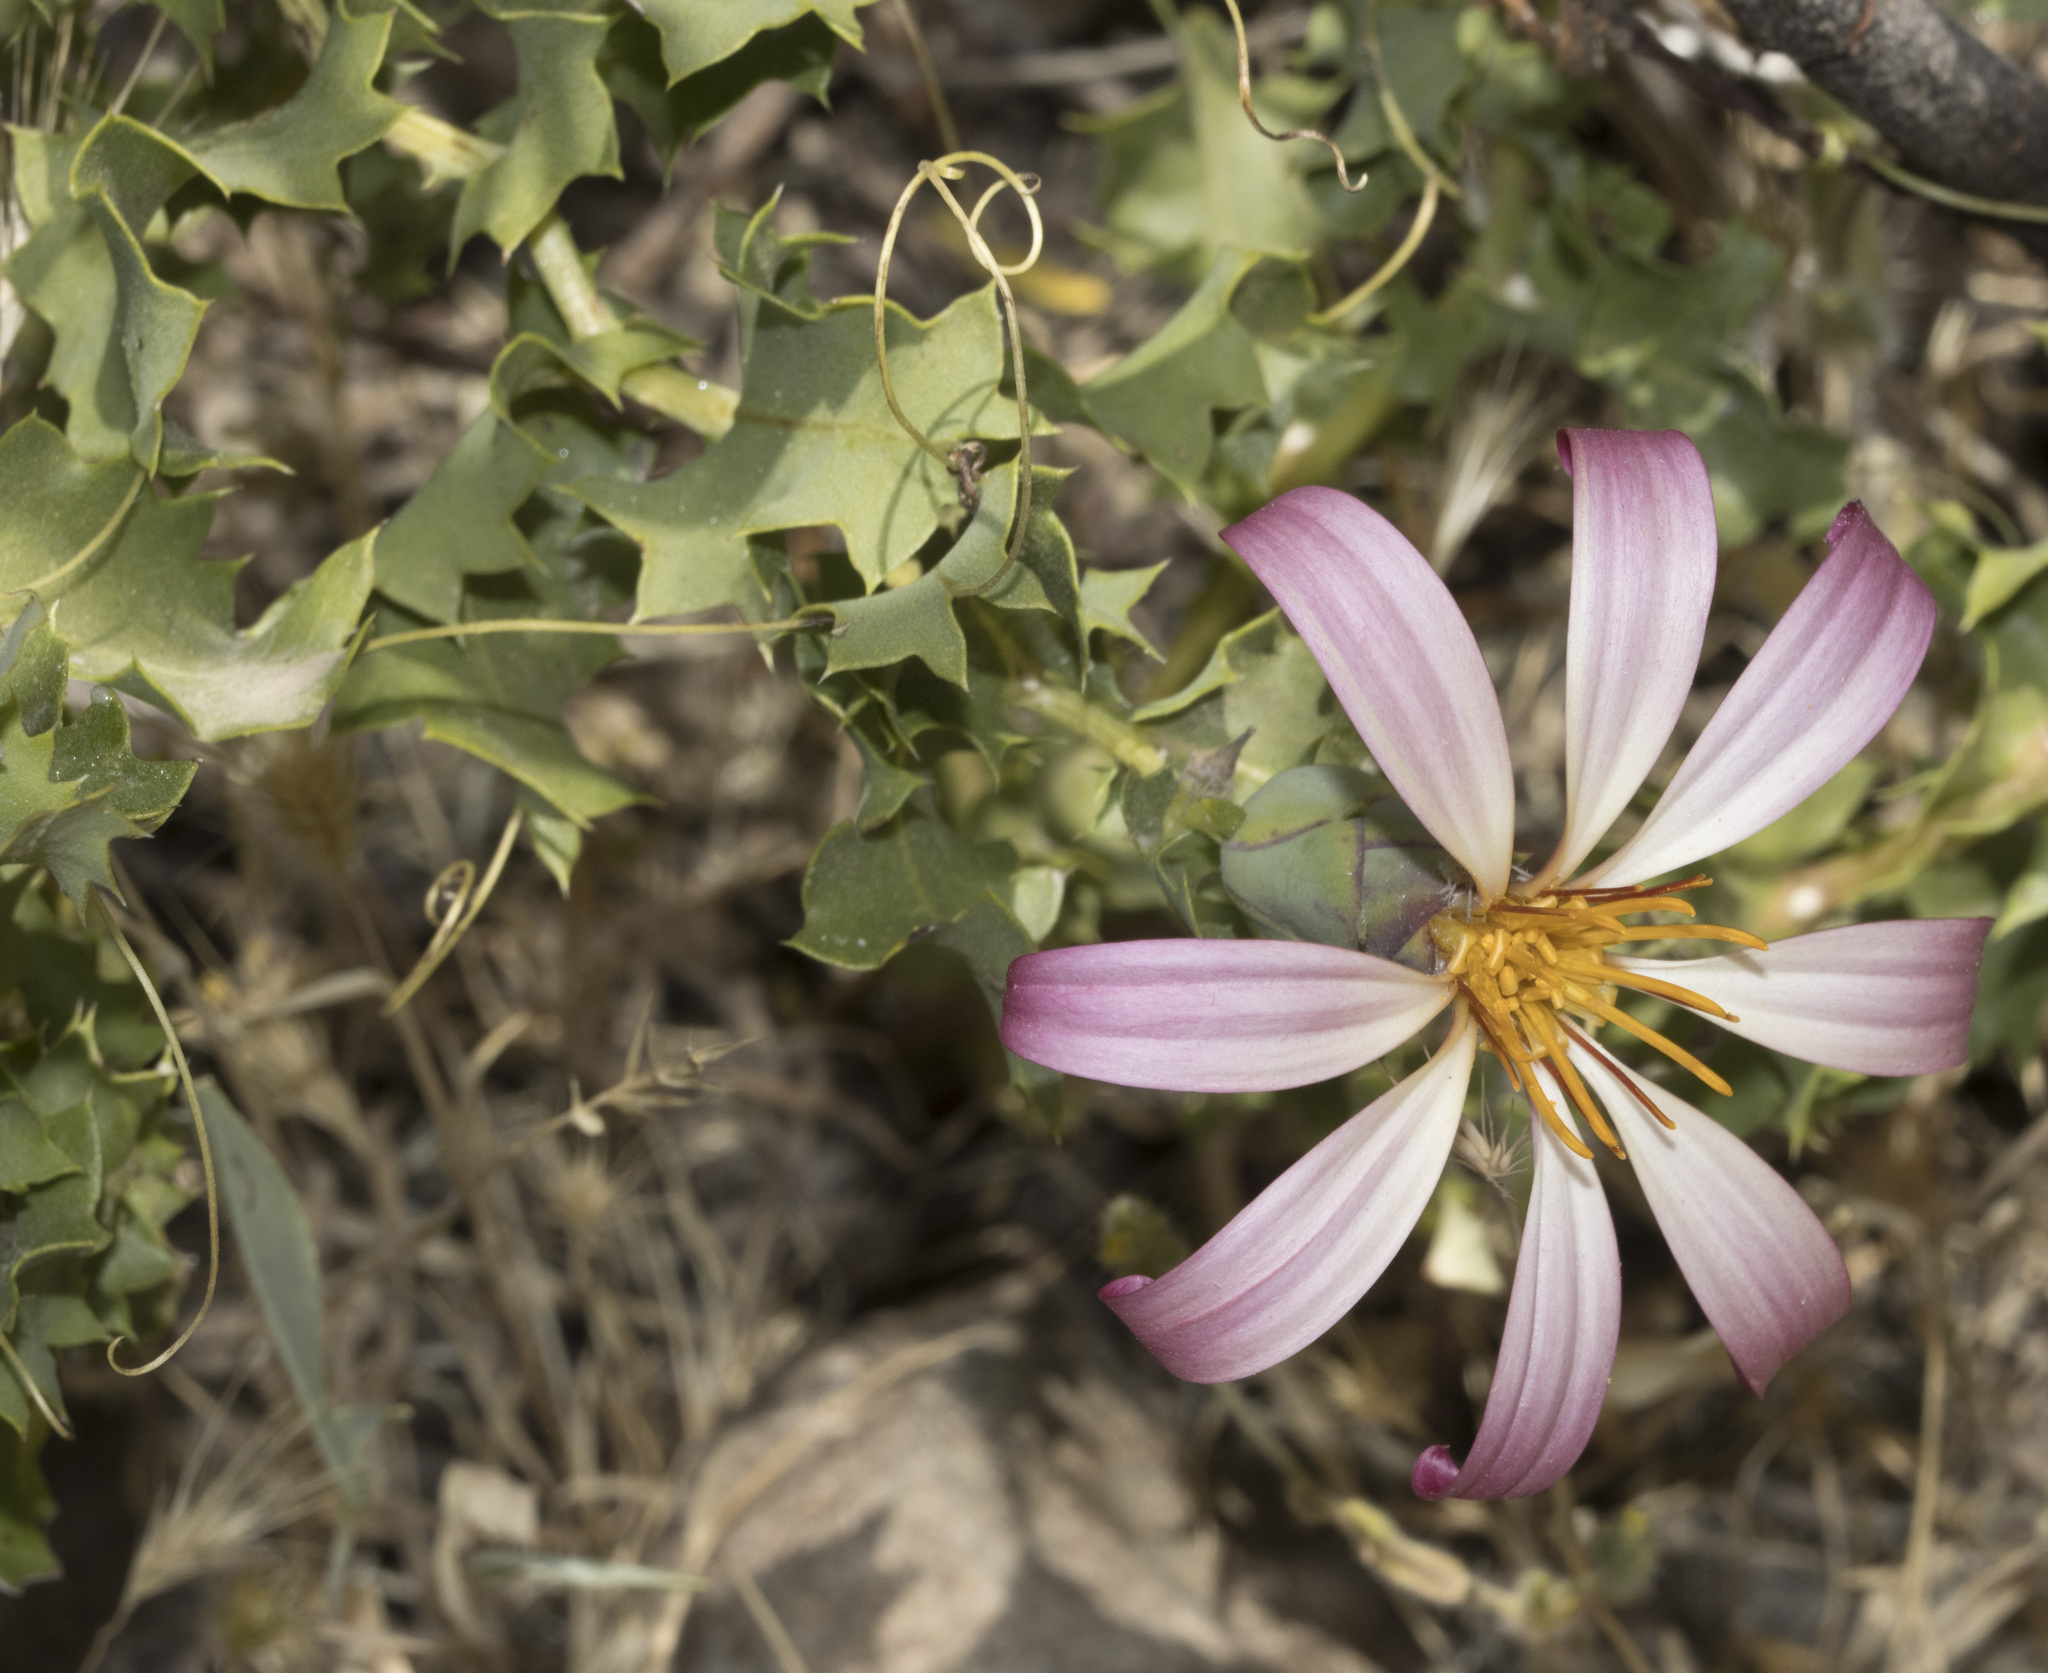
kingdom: Plantae
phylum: Tracheophyta
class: Magnoliopsida
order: Asterales
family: Asteraceae
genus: Mutisia
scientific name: Mutisia ilicifolia
